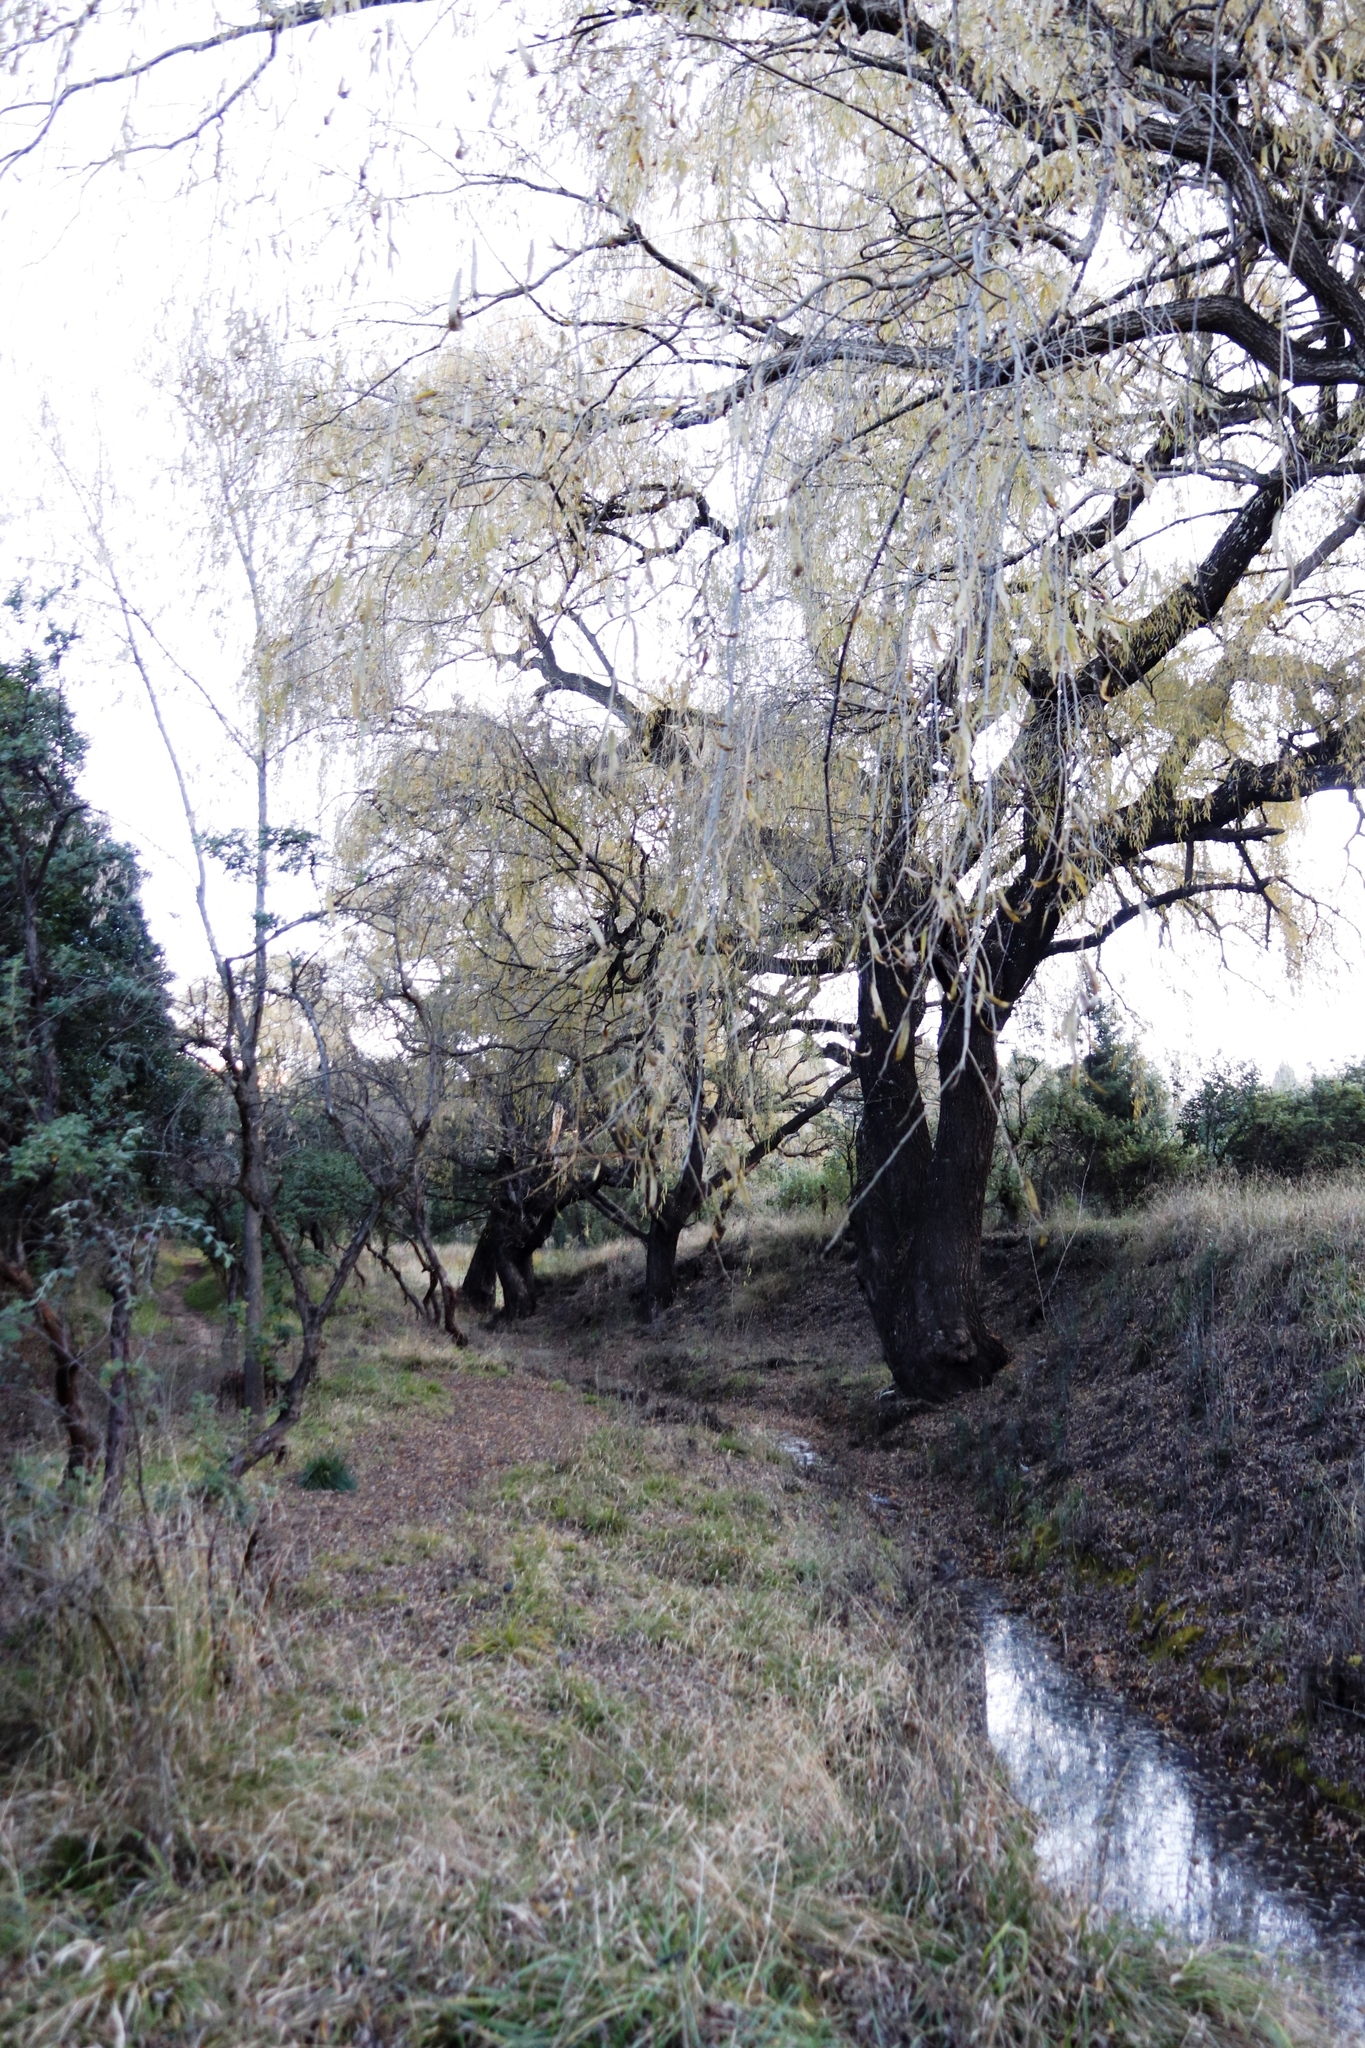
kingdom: Plantae
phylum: Tracheophyta
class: Magnoliopsida
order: Malpighiales
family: Salicaceae
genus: Salix
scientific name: Salix babylonica
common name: Weeping willow
